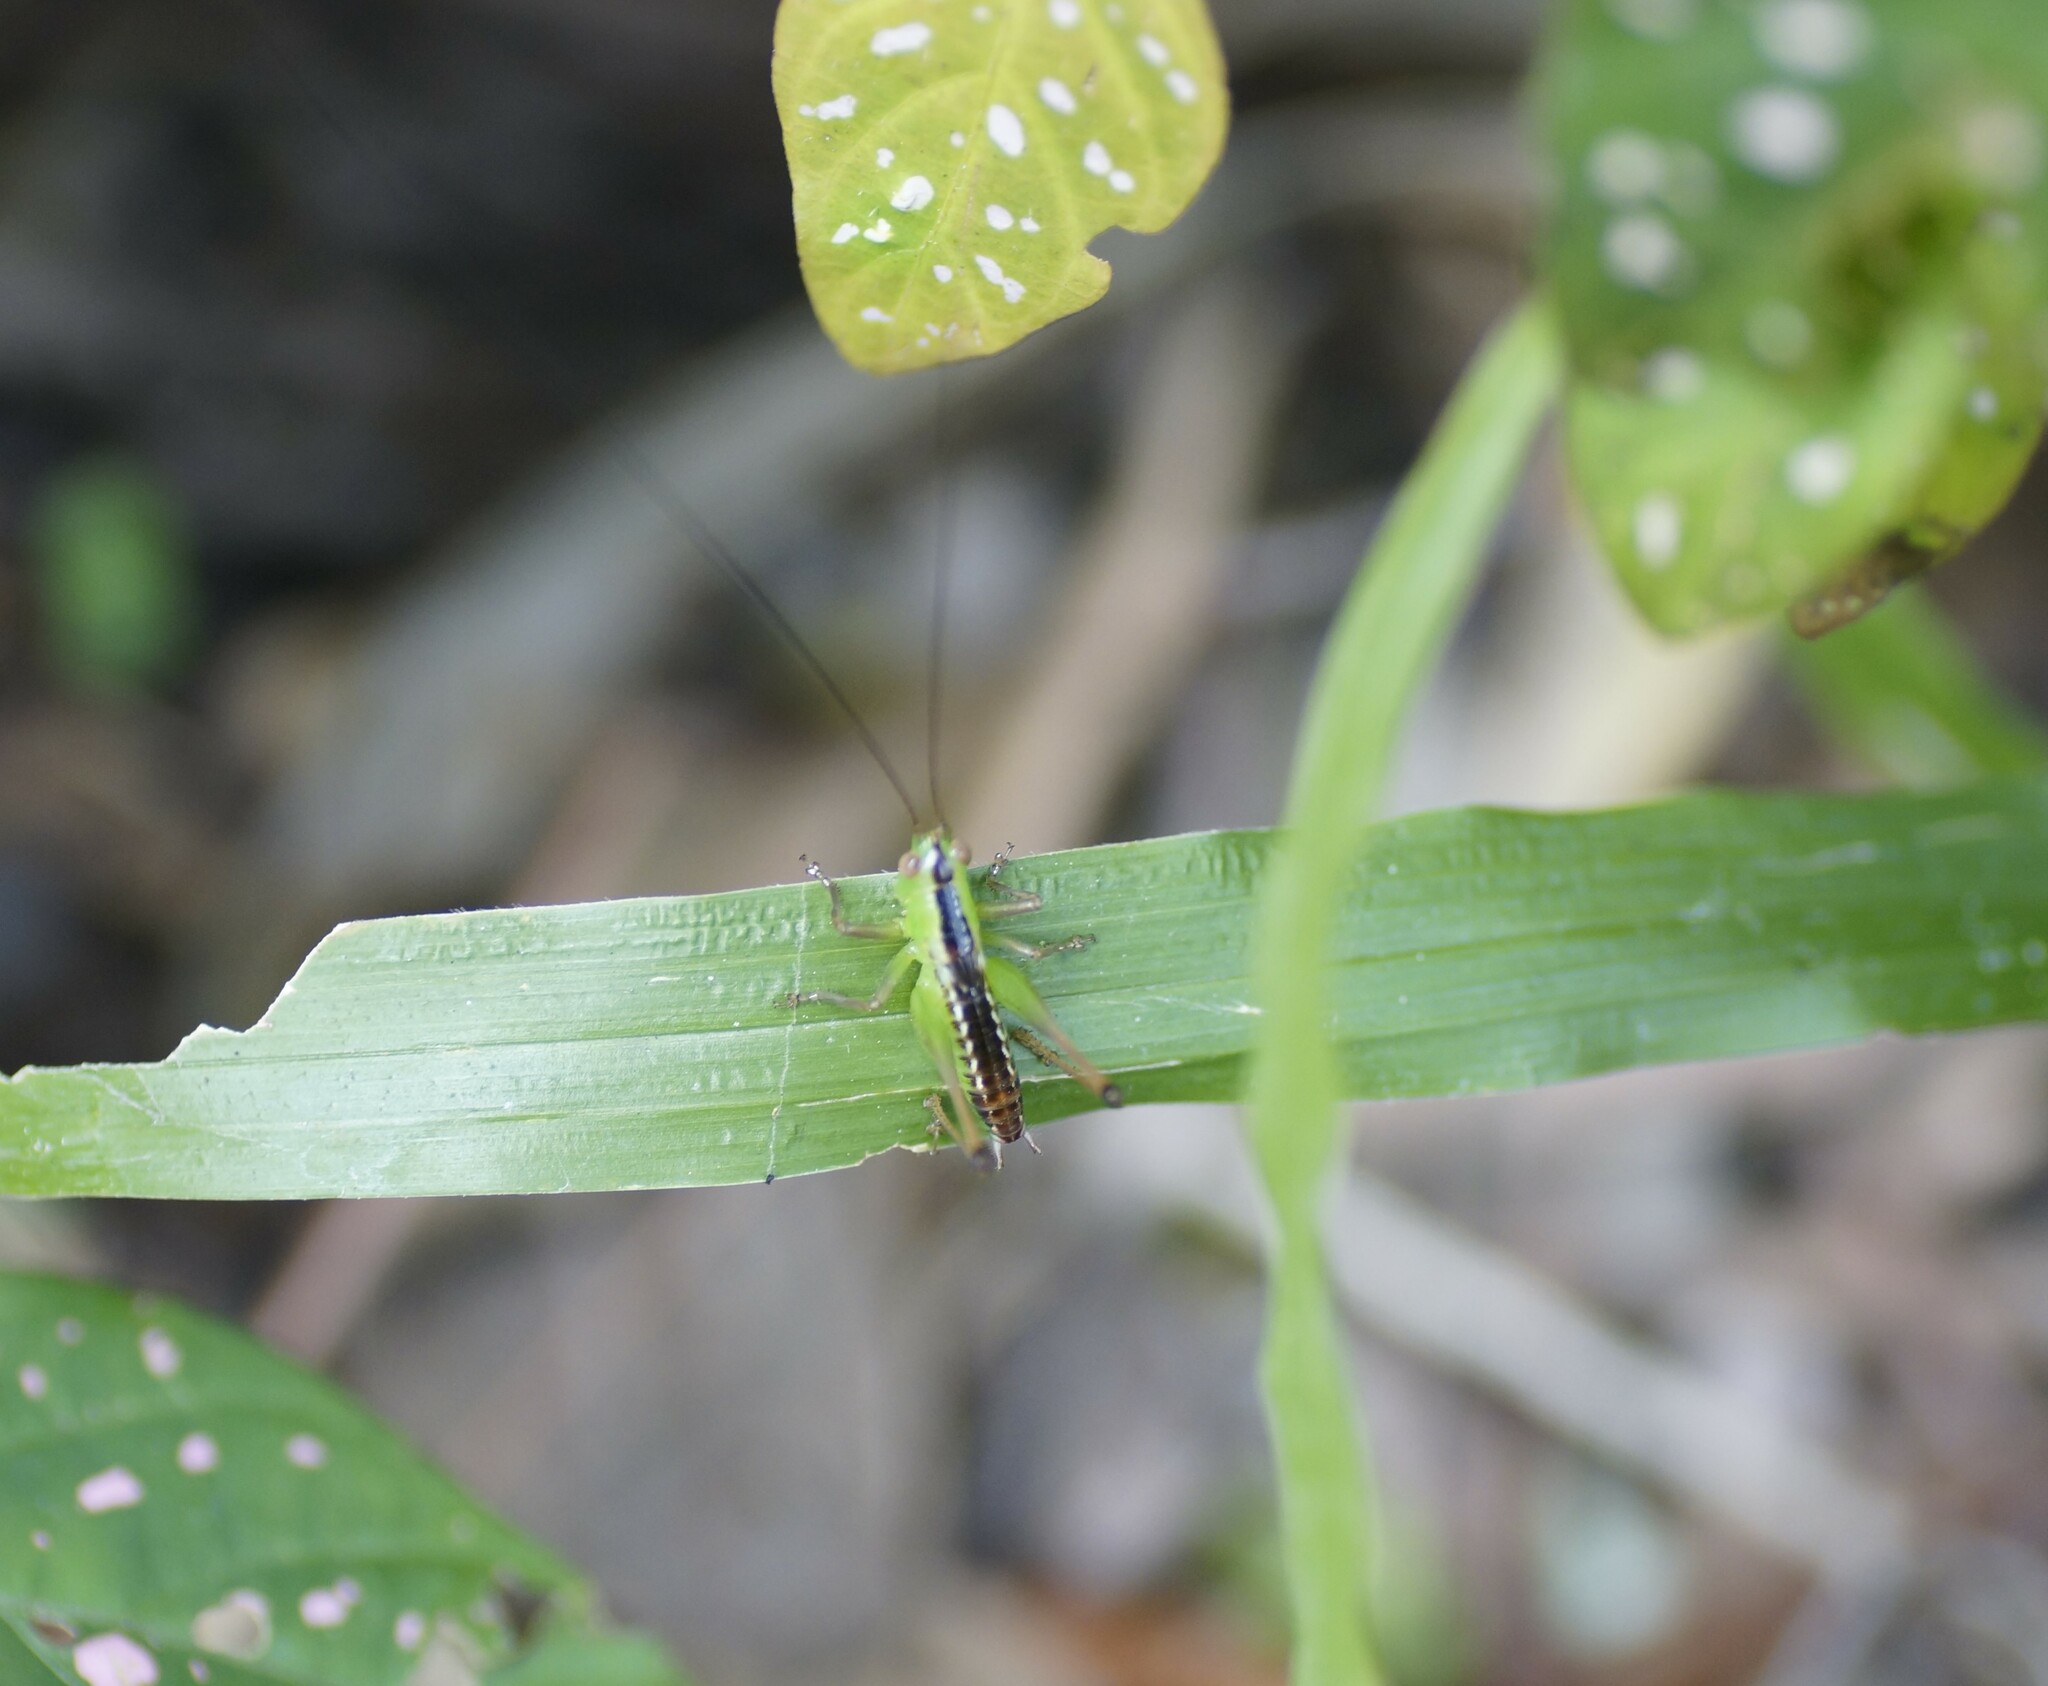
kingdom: Animalia
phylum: Arthropoda
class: Insecta
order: Orthoptera
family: Tettigoniidae
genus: Conocephalus
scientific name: Conocephalus semivittatus
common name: Blackish meadow katydid
